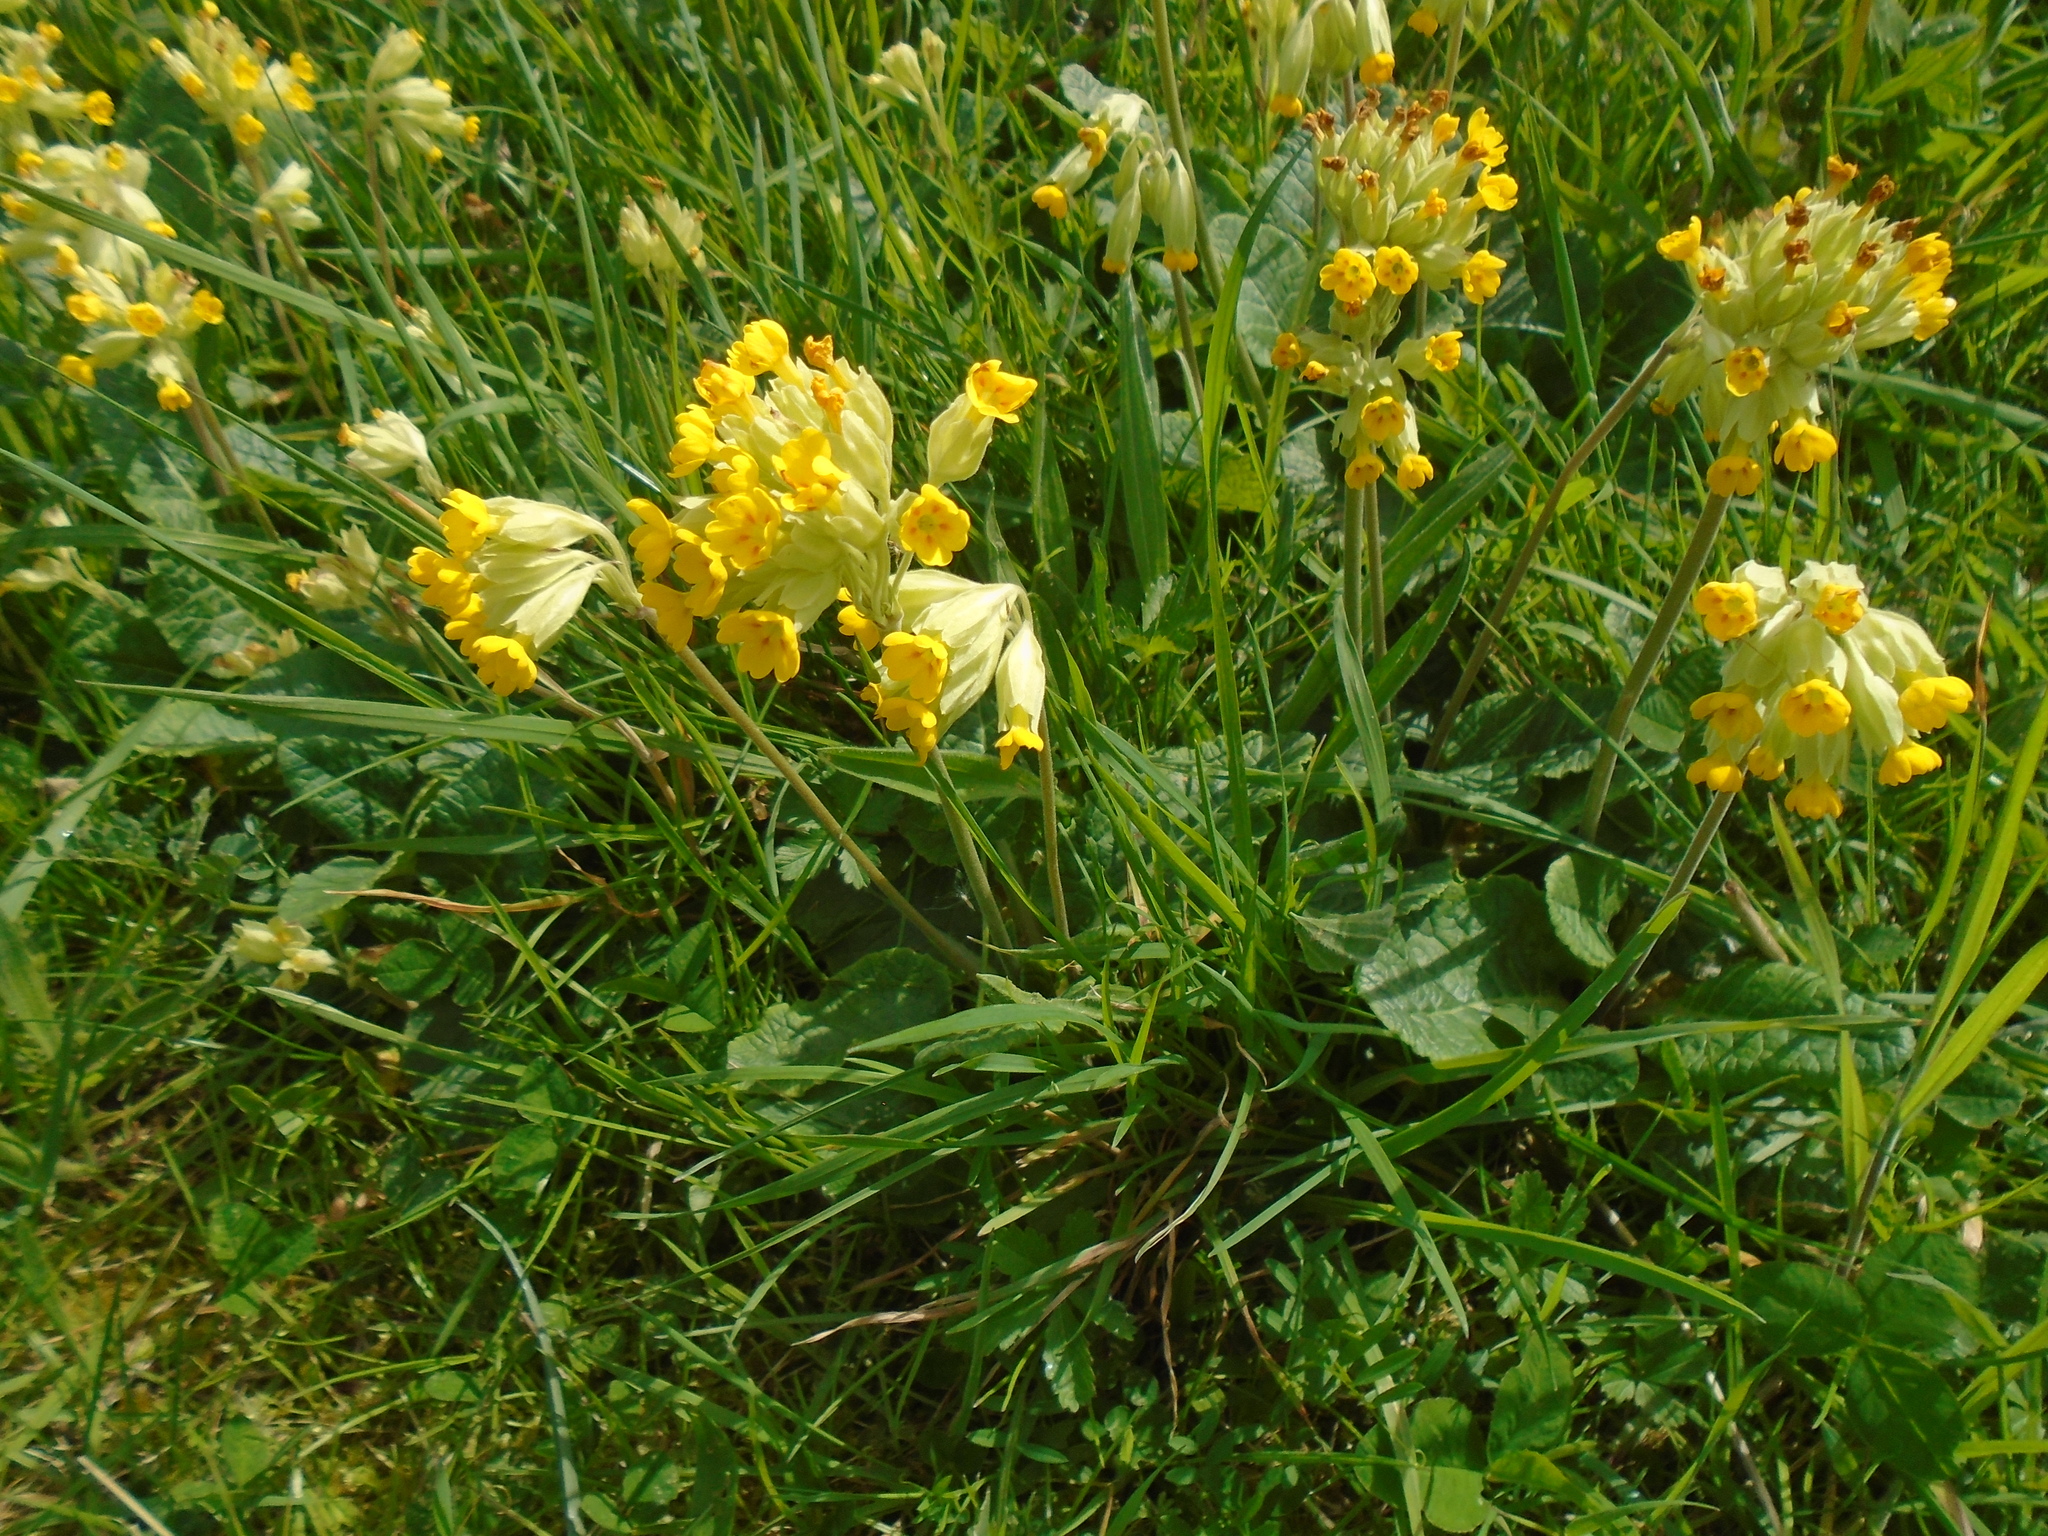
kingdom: Plantae
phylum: Tracheophyta
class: Magnoliopsida
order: Ericales
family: Primulaceae
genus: Primula
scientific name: Primula veris
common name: Cowslip
